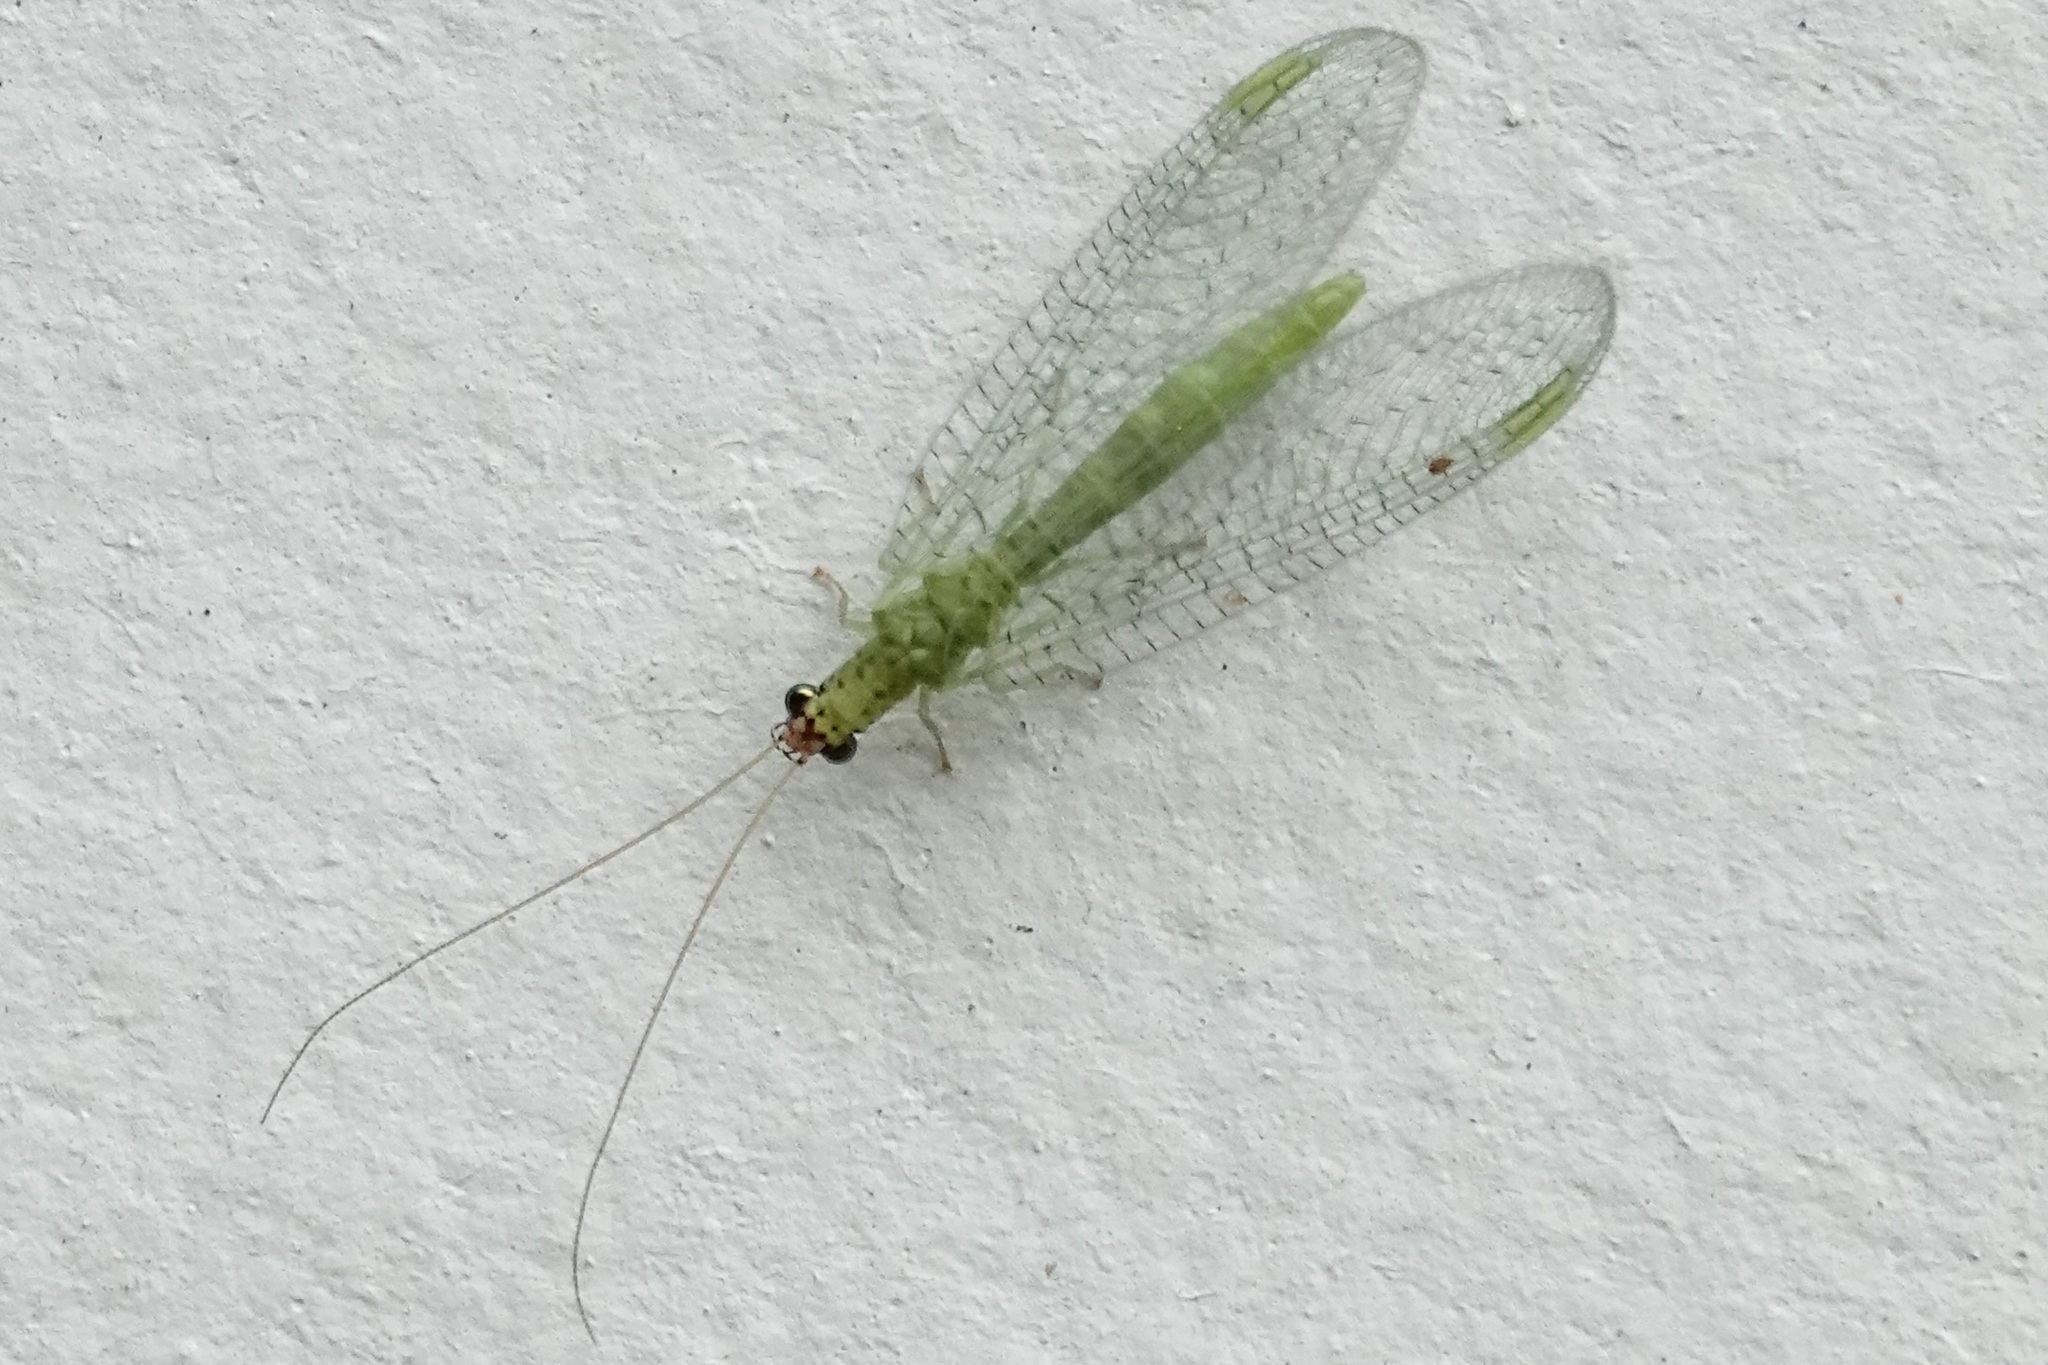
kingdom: Animalia
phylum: Arthropoda
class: Insecta
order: Neuroptera
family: Chrysopidae
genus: Chrysopa
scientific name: Chrysopa oculata
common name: Golden-eyed lacewing
